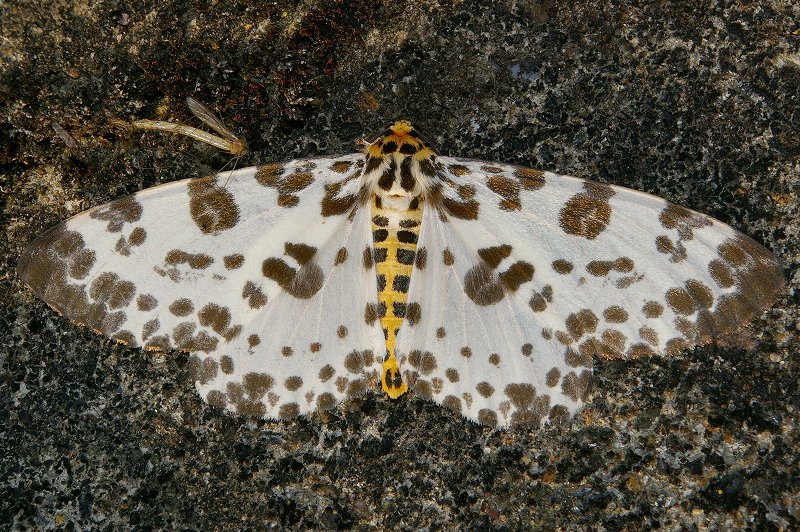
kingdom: Animalia
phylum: Arthropoda
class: Insecta
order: Lepidoptera
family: Geometridae
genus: Parapercnia
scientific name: Parapercnia giraffata
